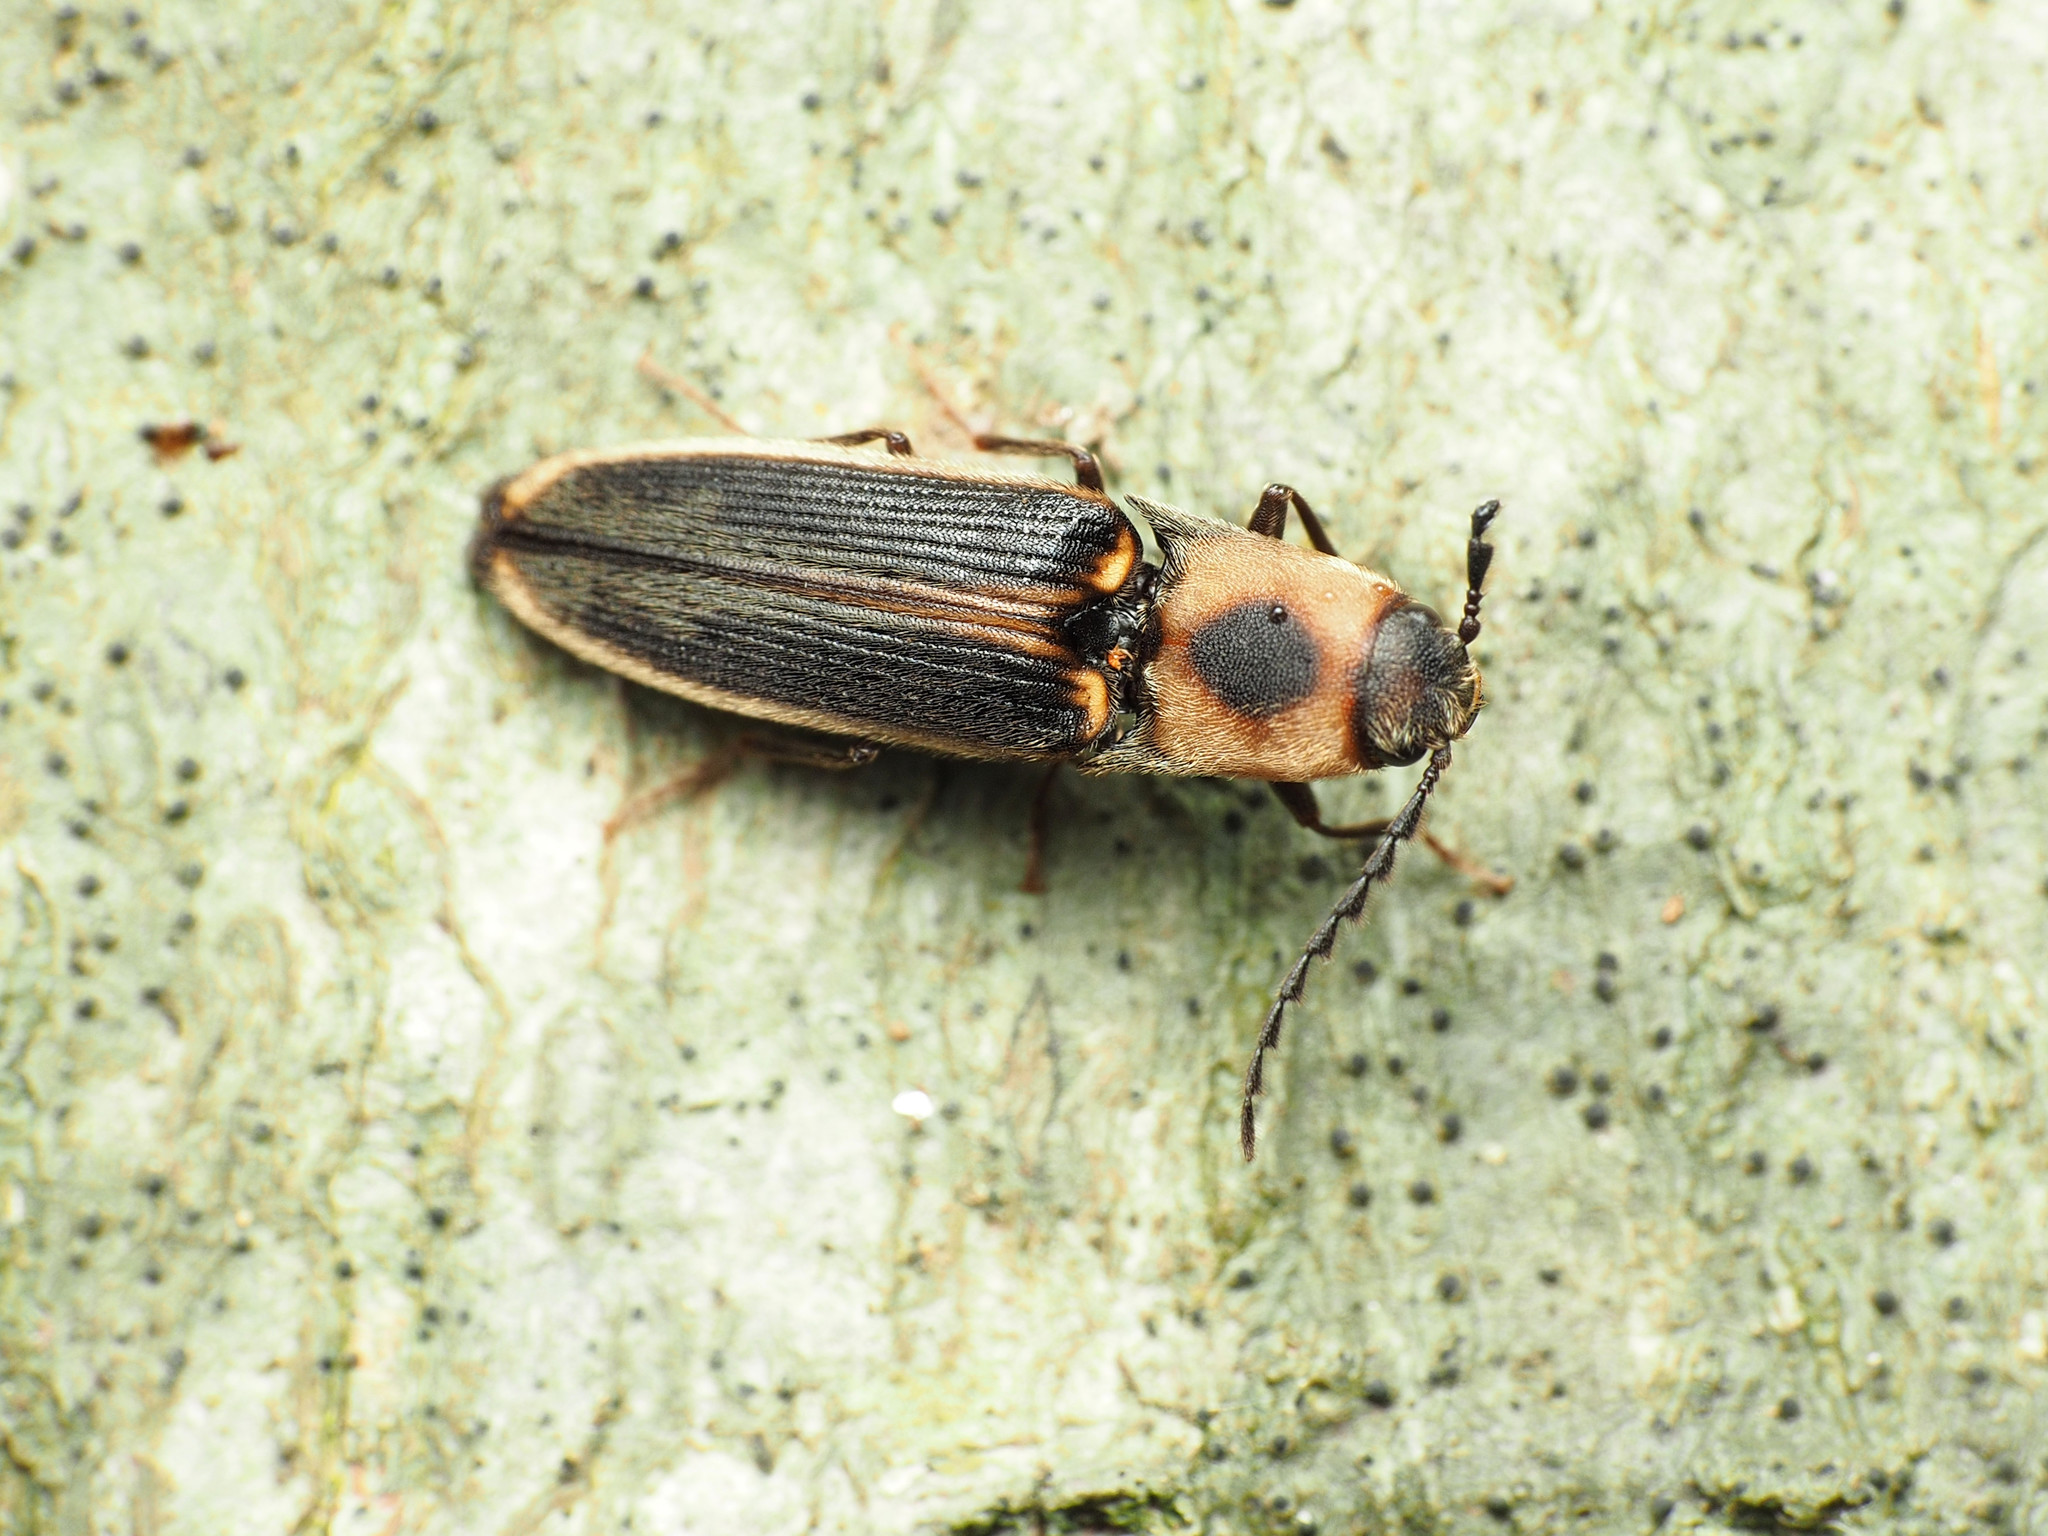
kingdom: Animalia
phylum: Arthropoda
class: Insecta
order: Coleoptera
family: Elateridae
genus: Megapenthes
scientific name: Megapenthes
